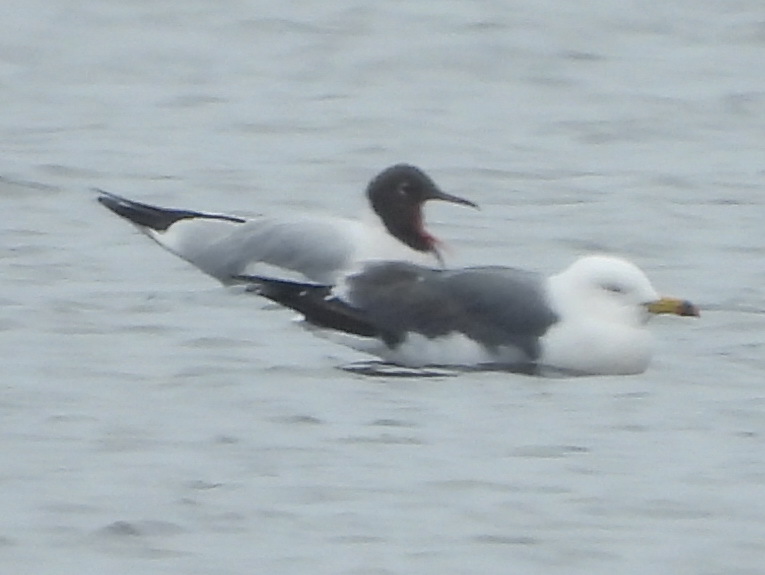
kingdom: Animalia
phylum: Chordata
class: Aves
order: Charadriiformes
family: Laridae
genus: Chroicocephalus
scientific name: Chroicocephalus ridibundus
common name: Black-headed gull
